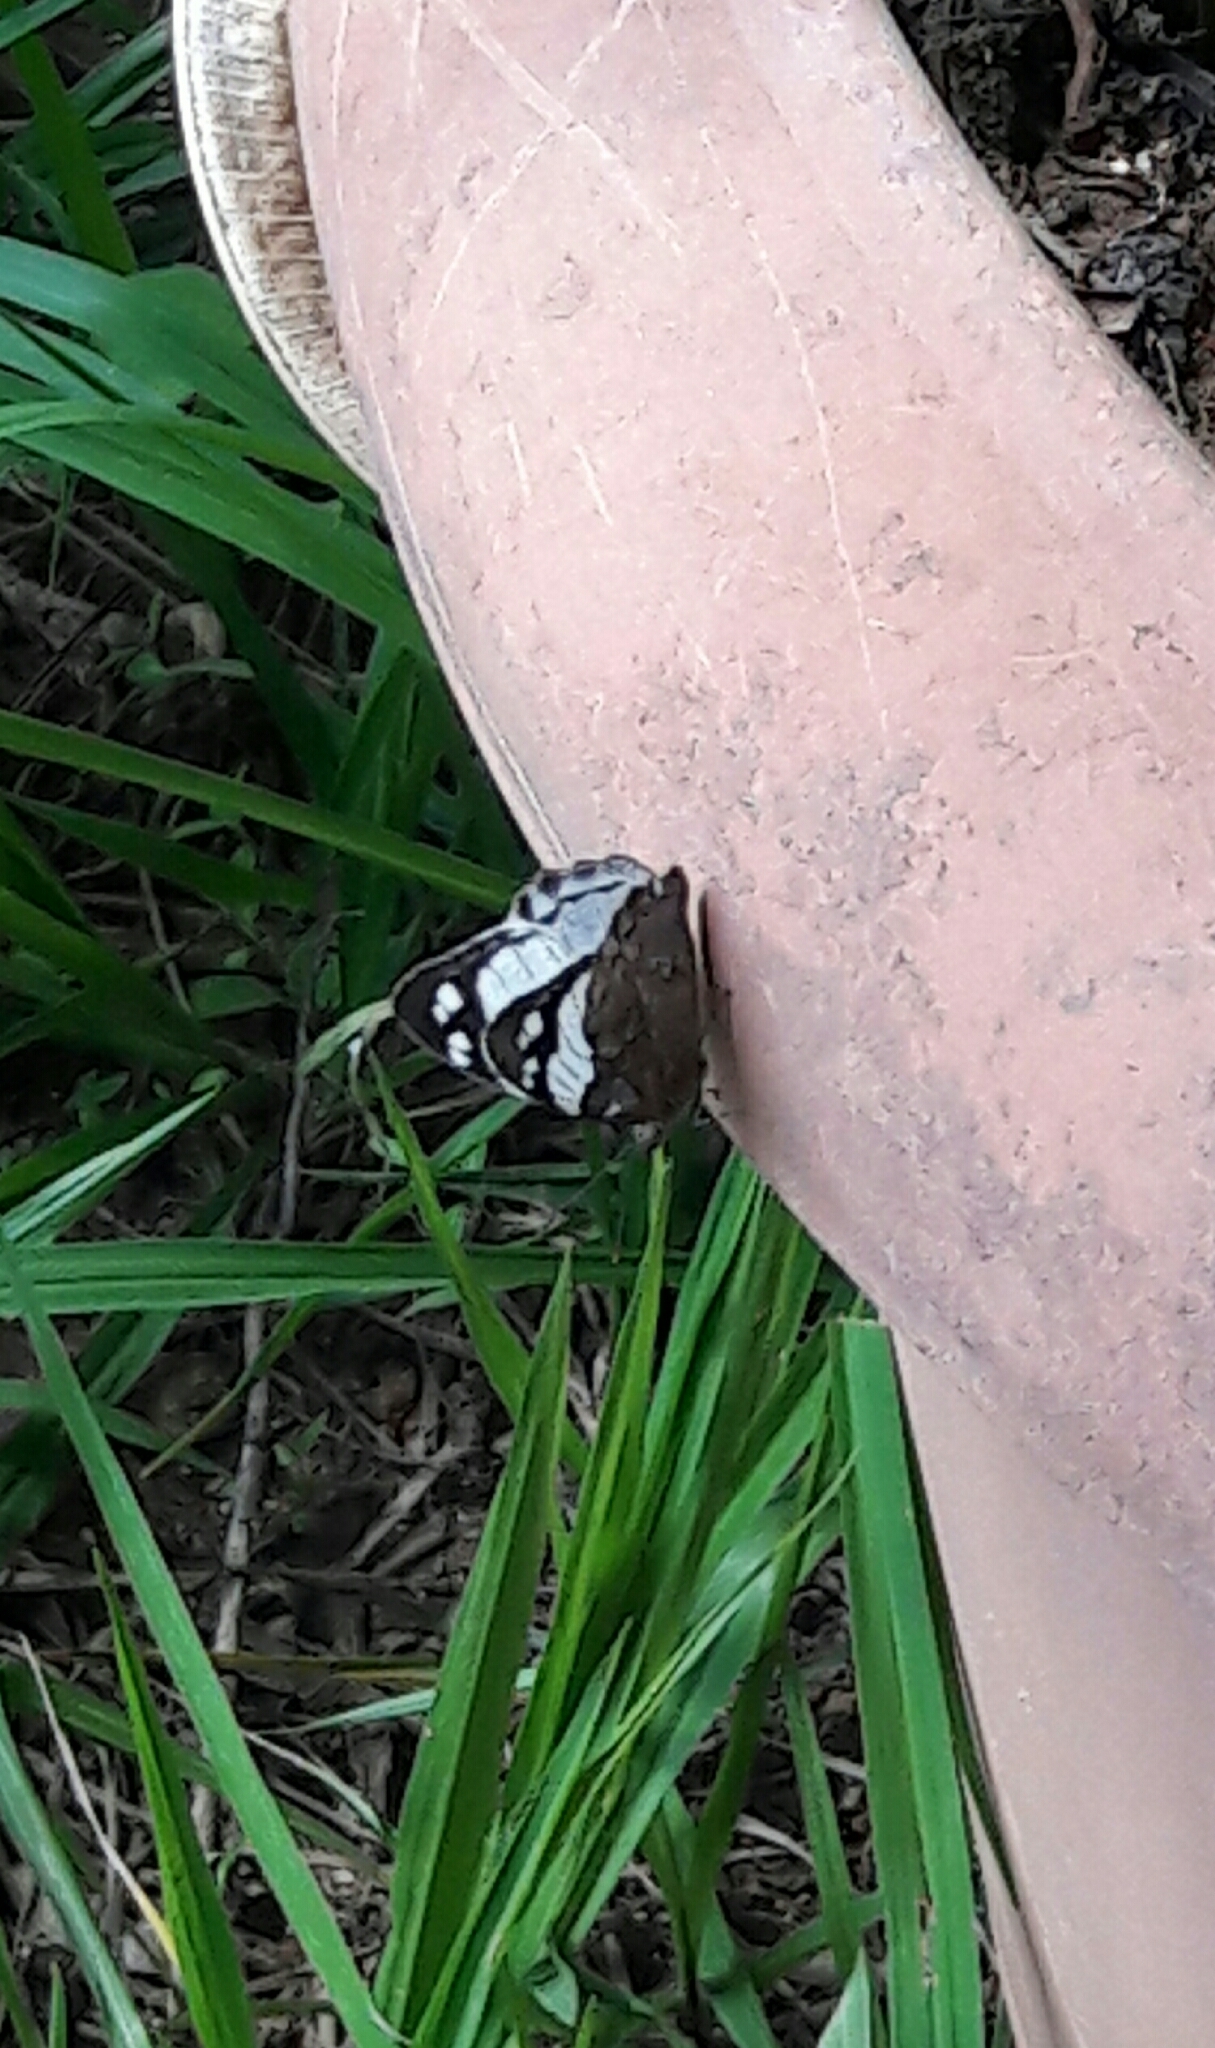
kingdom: Animalia
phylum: Arthropoda
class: Insecta
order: Lepidoptera
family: Nymphalidae
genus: Eunica
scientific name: Eunica margarita
